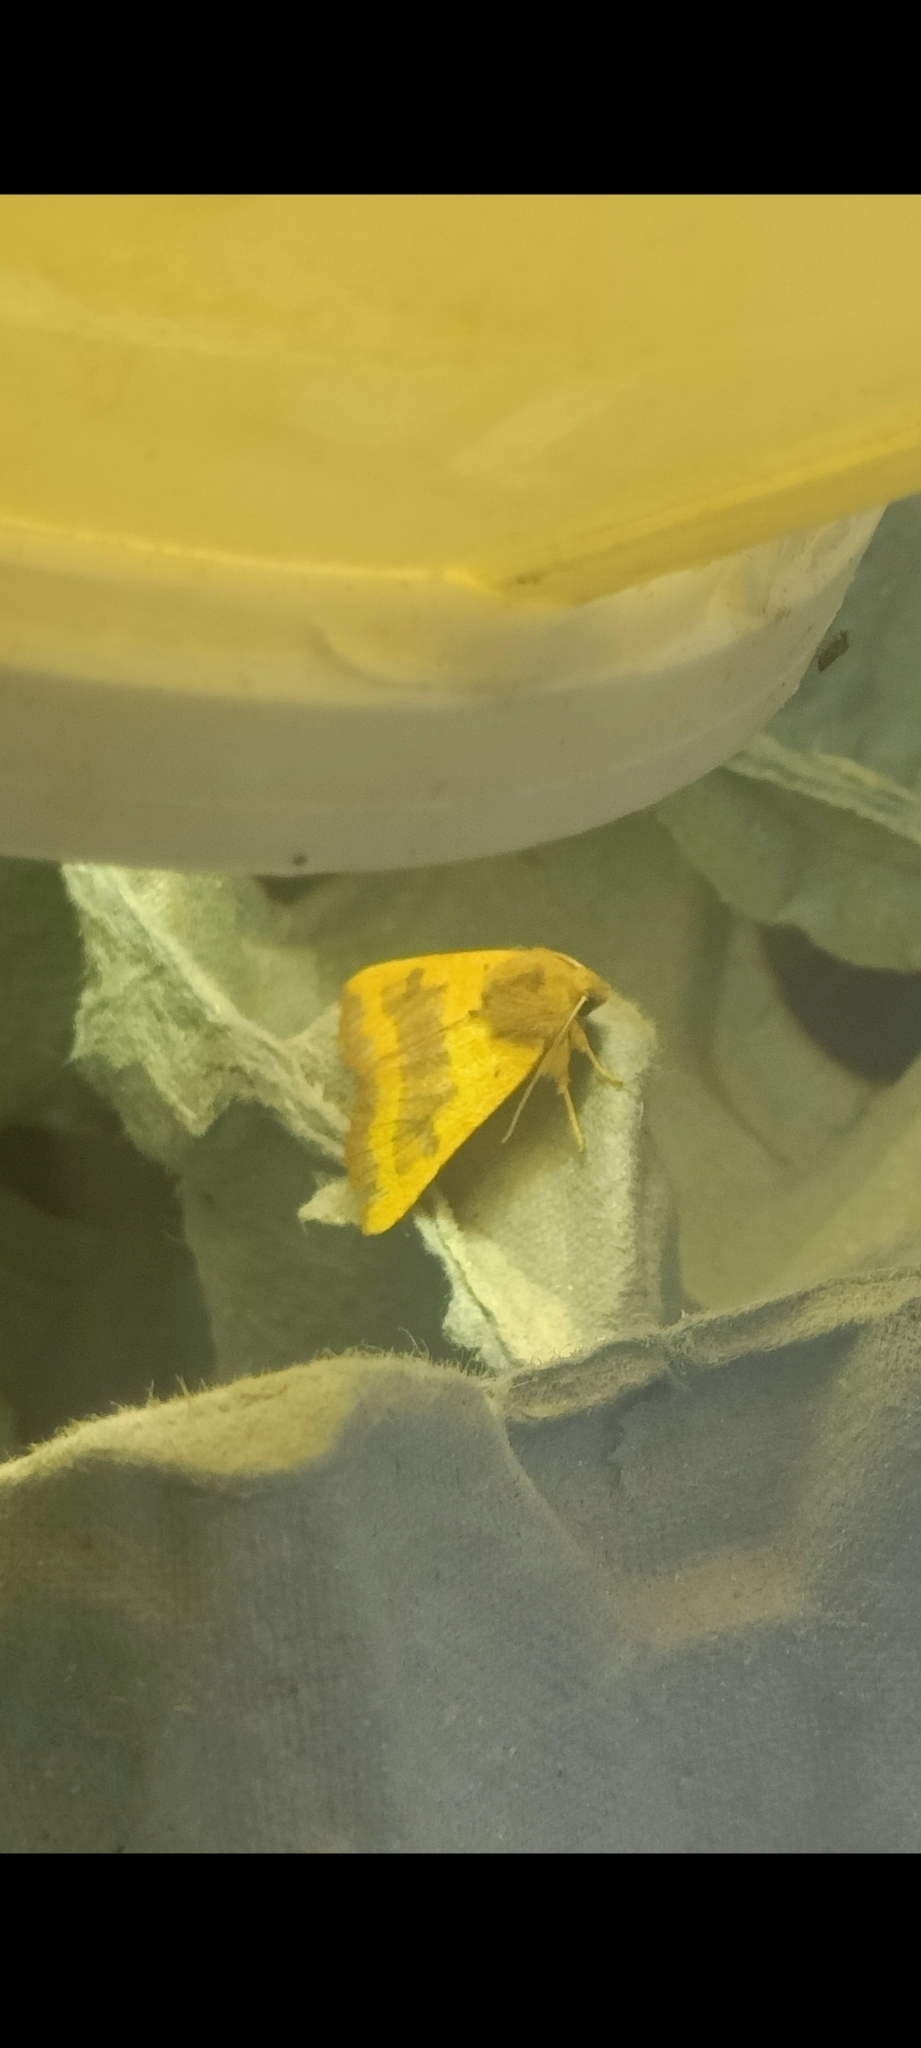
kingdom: Animalia
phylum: Arthropoda
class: Insecta
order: Lepidoptera
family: Noctuidae
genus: Atethmia
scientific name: Atethmia centrago
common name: Centre-barred sallow
